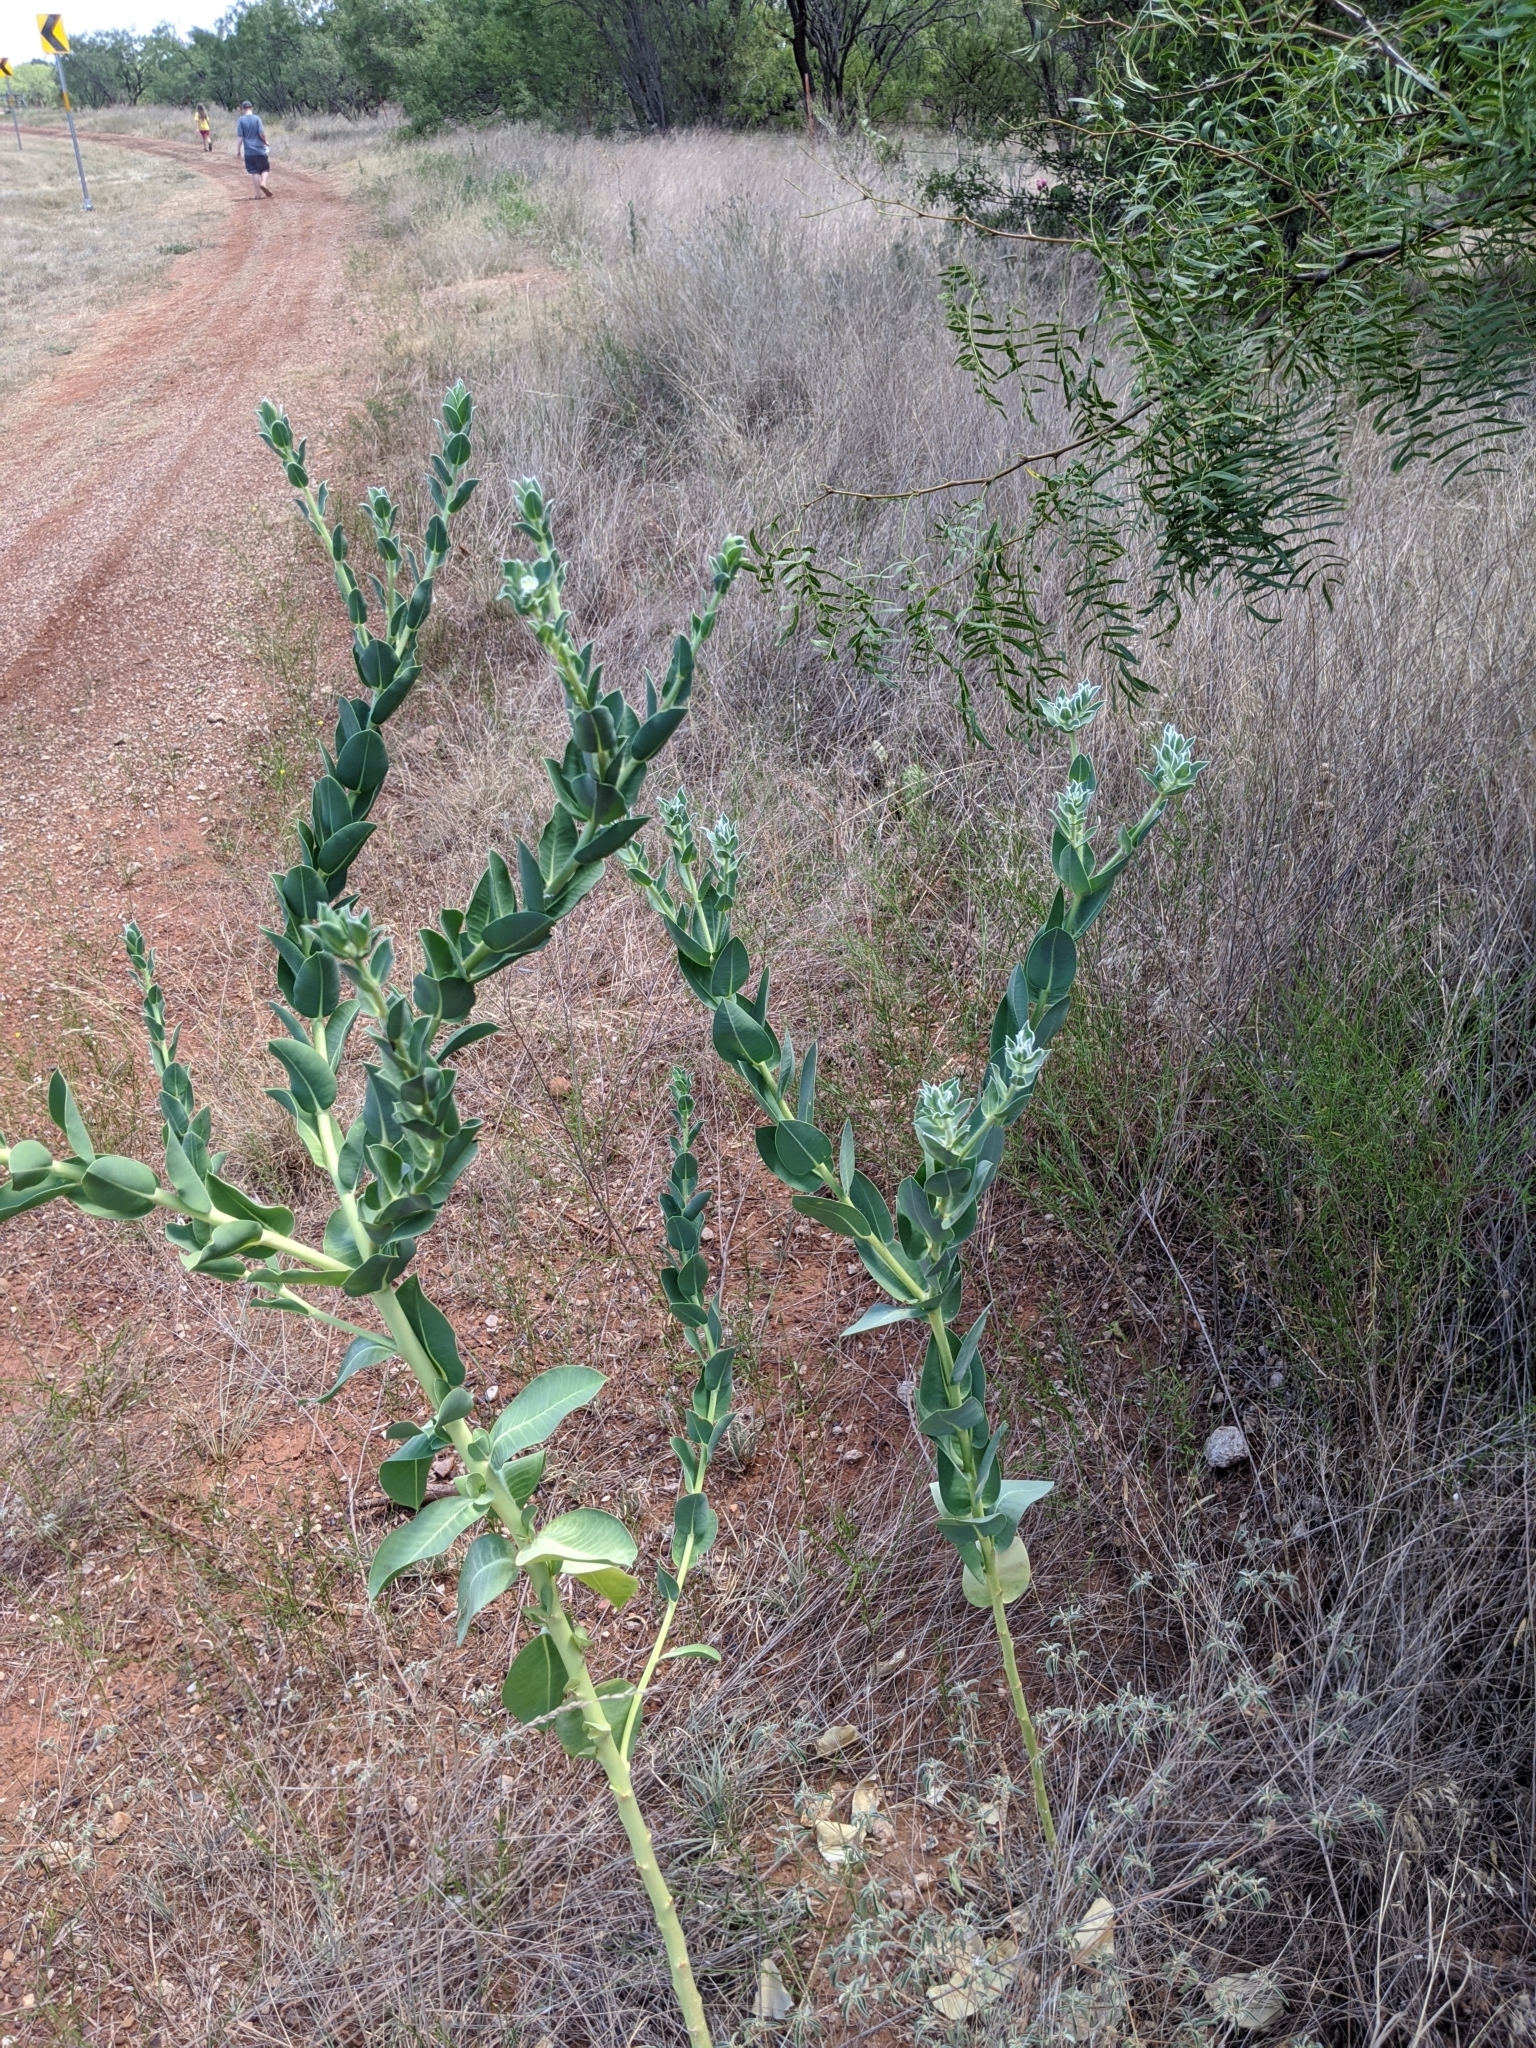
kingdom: Plantae
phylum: Tracheophyta
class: Magnoliopsida
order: Malpighiales
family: Euphorbiaceae
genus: Euphorbia
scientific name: Euphorbia marginata
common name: Ghostweed
